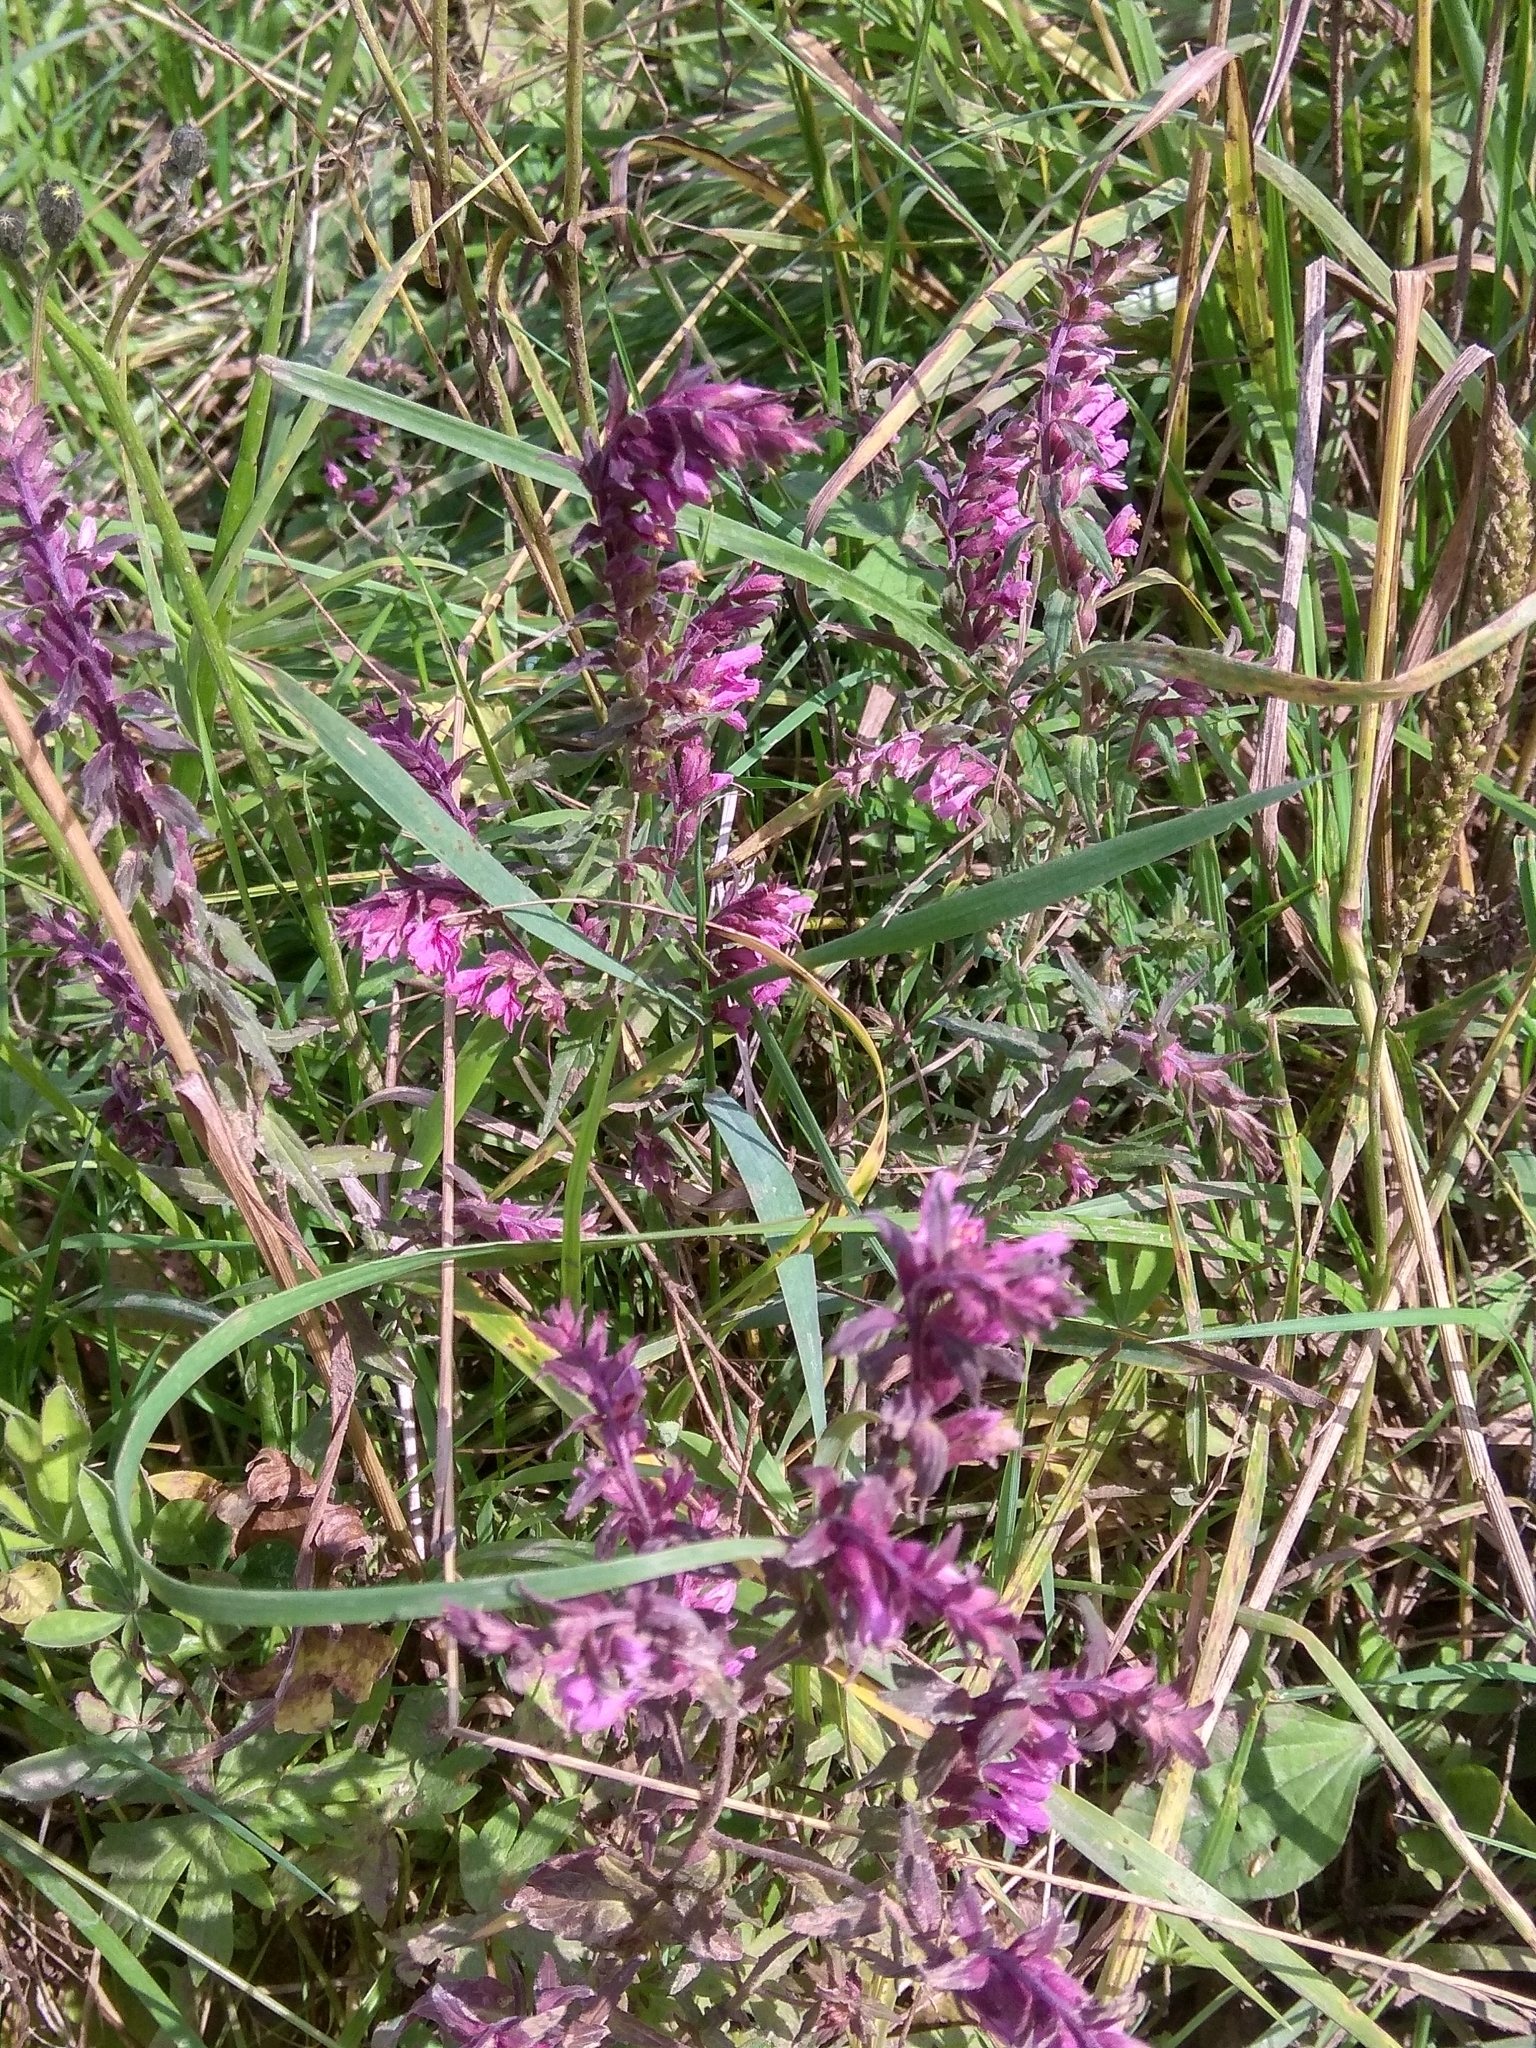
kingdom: Plantae
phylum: Tracheophyta
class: Magnoliopsida
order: Lamiales
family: Orobanchaceae
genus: Odontites
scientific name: Odontites vulgaris
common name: Broomrape
